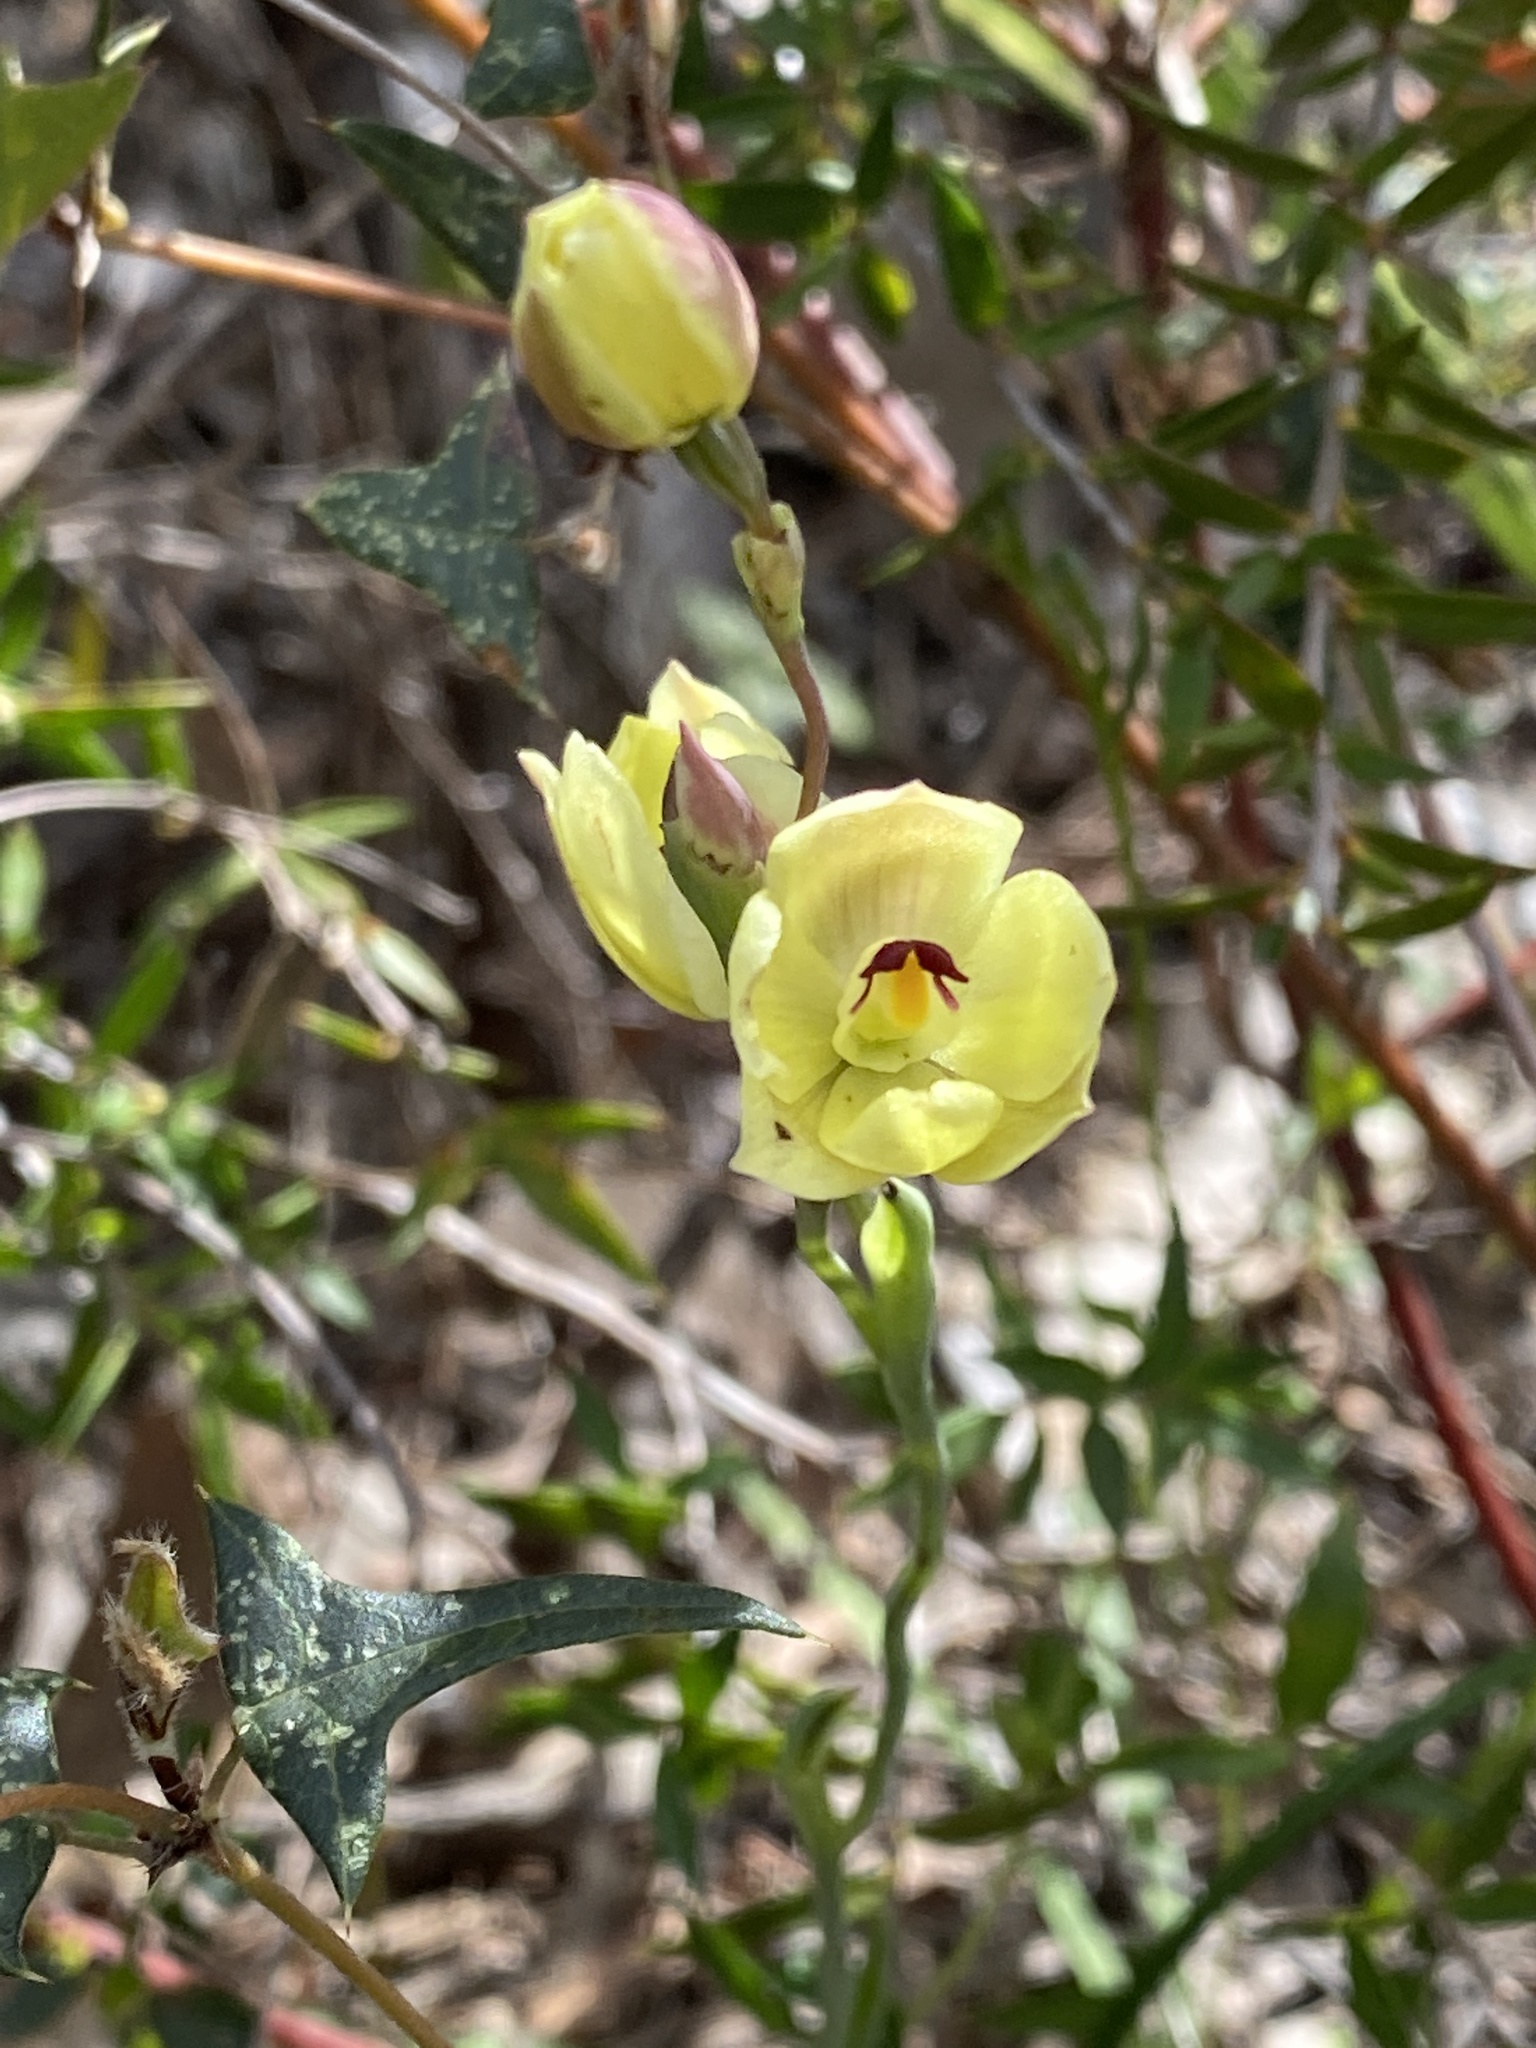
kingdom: Plantae
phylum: Tracheophyta
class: Liliopsida
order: Asparagales
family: Orchidaceae
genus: Thelymitra
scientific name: Thelymitra antennifera
